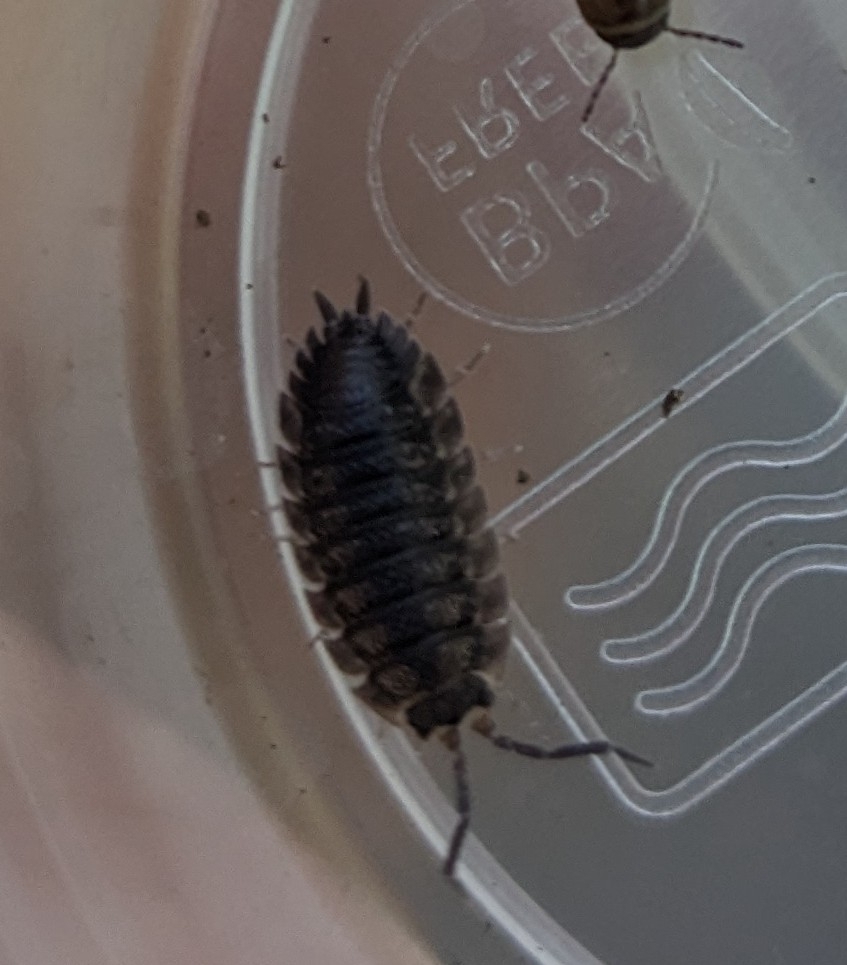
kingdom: Animalia
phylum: Arthropoda
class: Malacostraca
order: Isopoda
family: Porcellionidae
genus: Porcellio
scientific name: Porcellio scaber
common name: Common rough woodlouse
